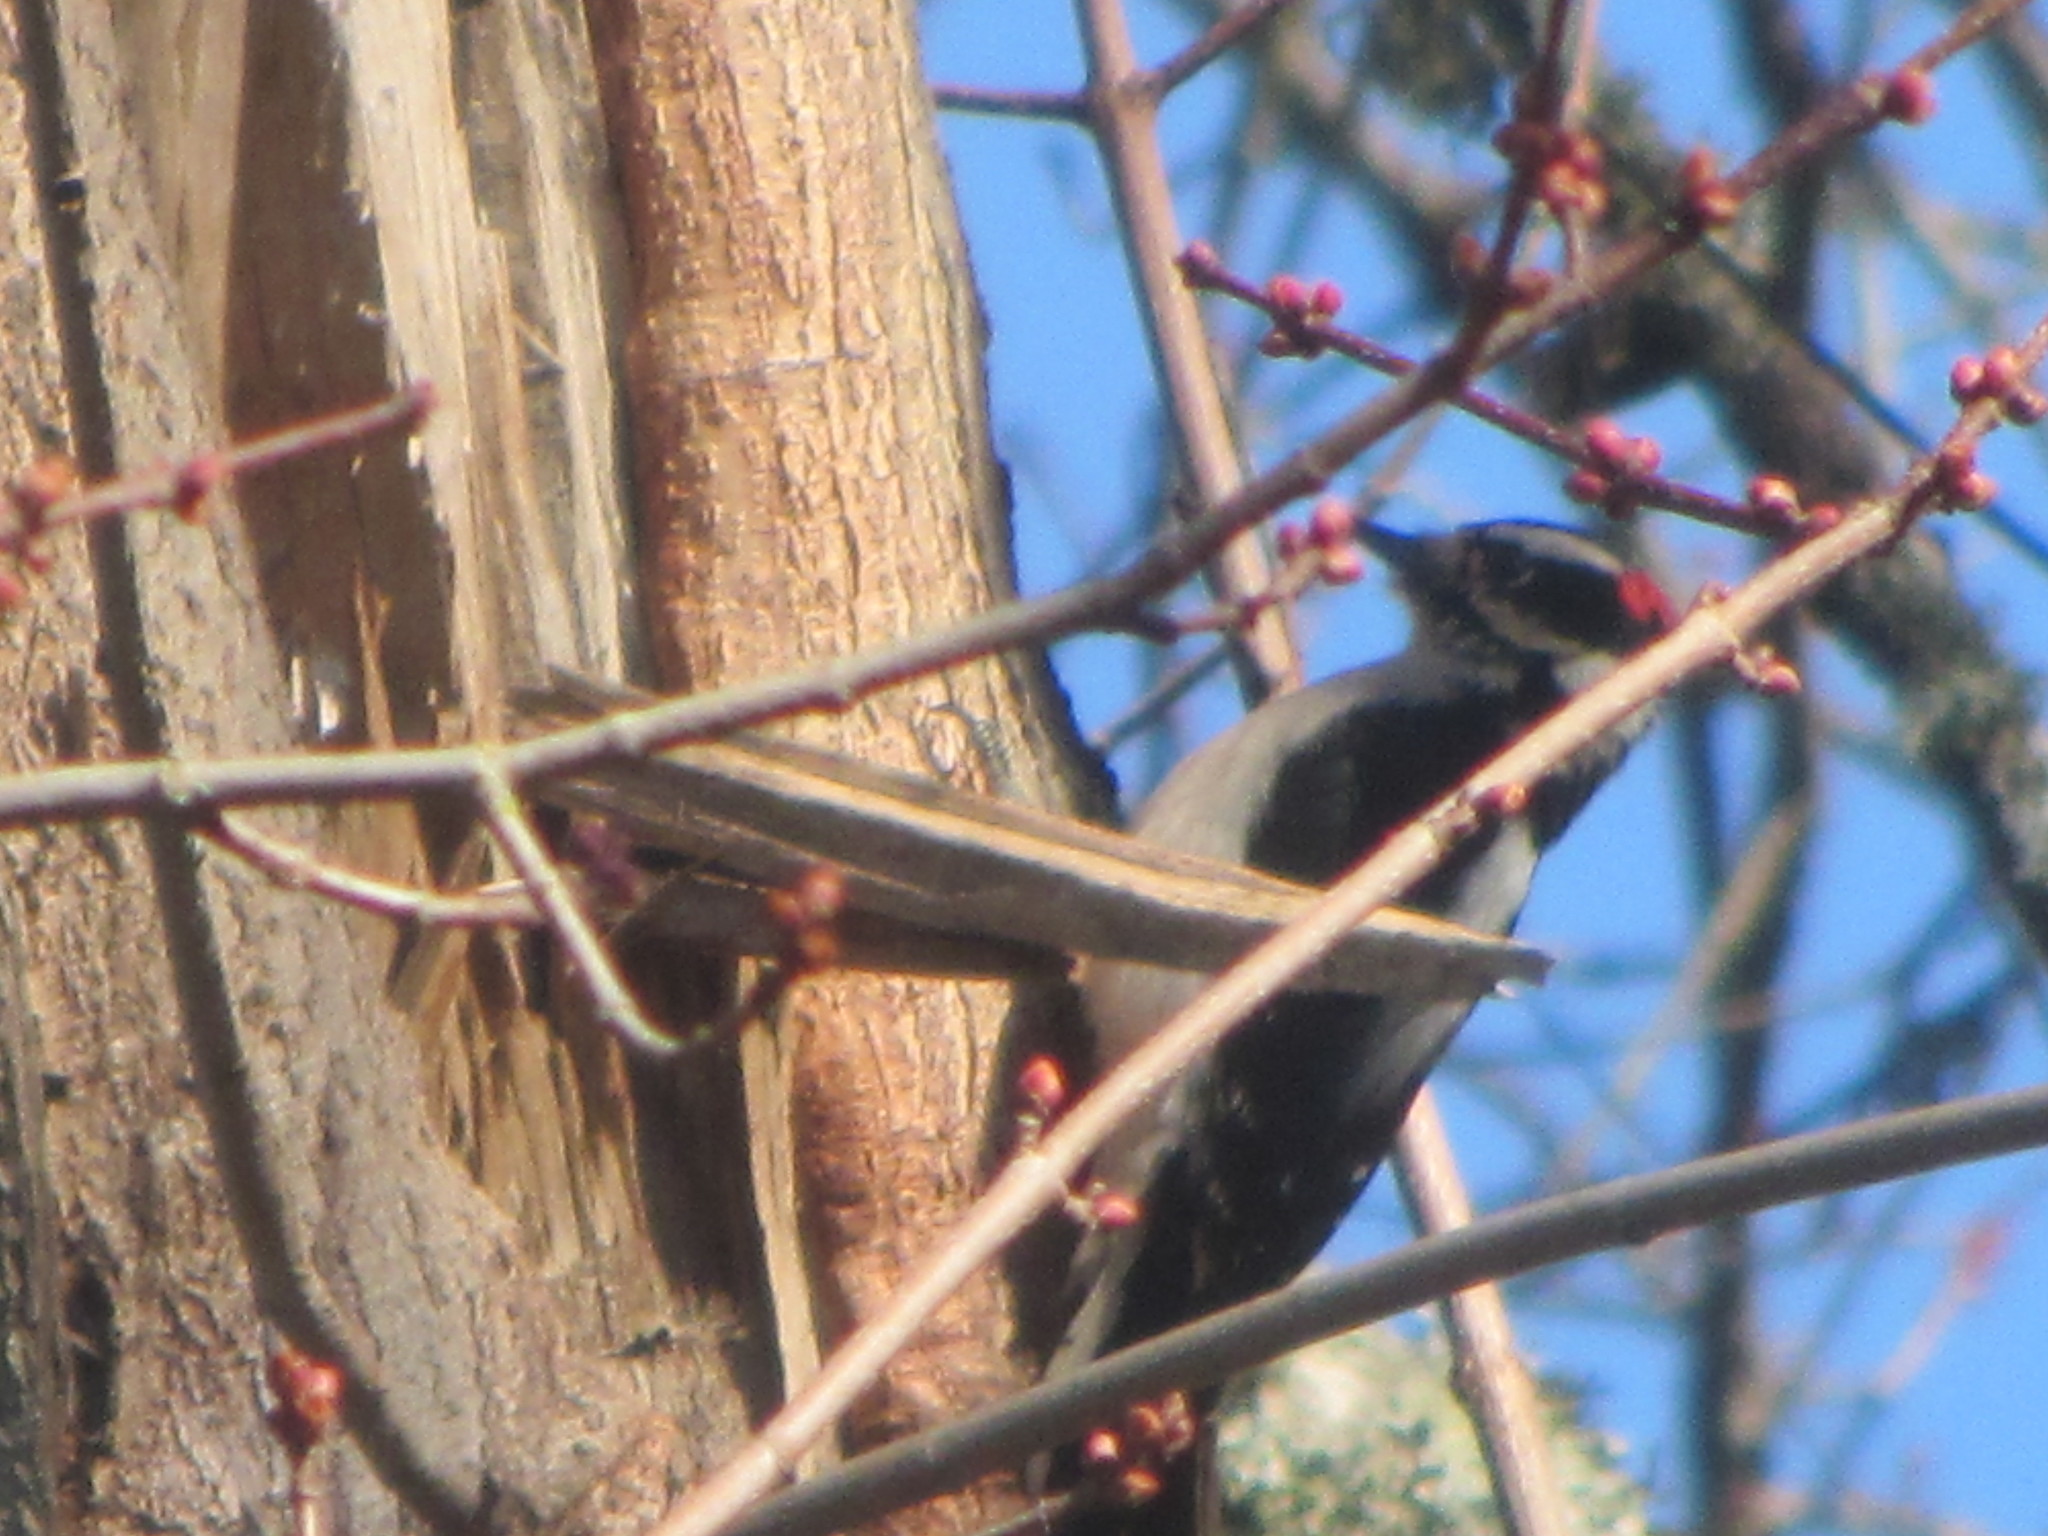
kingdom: Animalia
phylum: Chordata
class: Aves
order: Piciformes
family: Picidae
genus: Dryobates
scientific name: Dryobates pubescens
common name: Downy woodpecker
